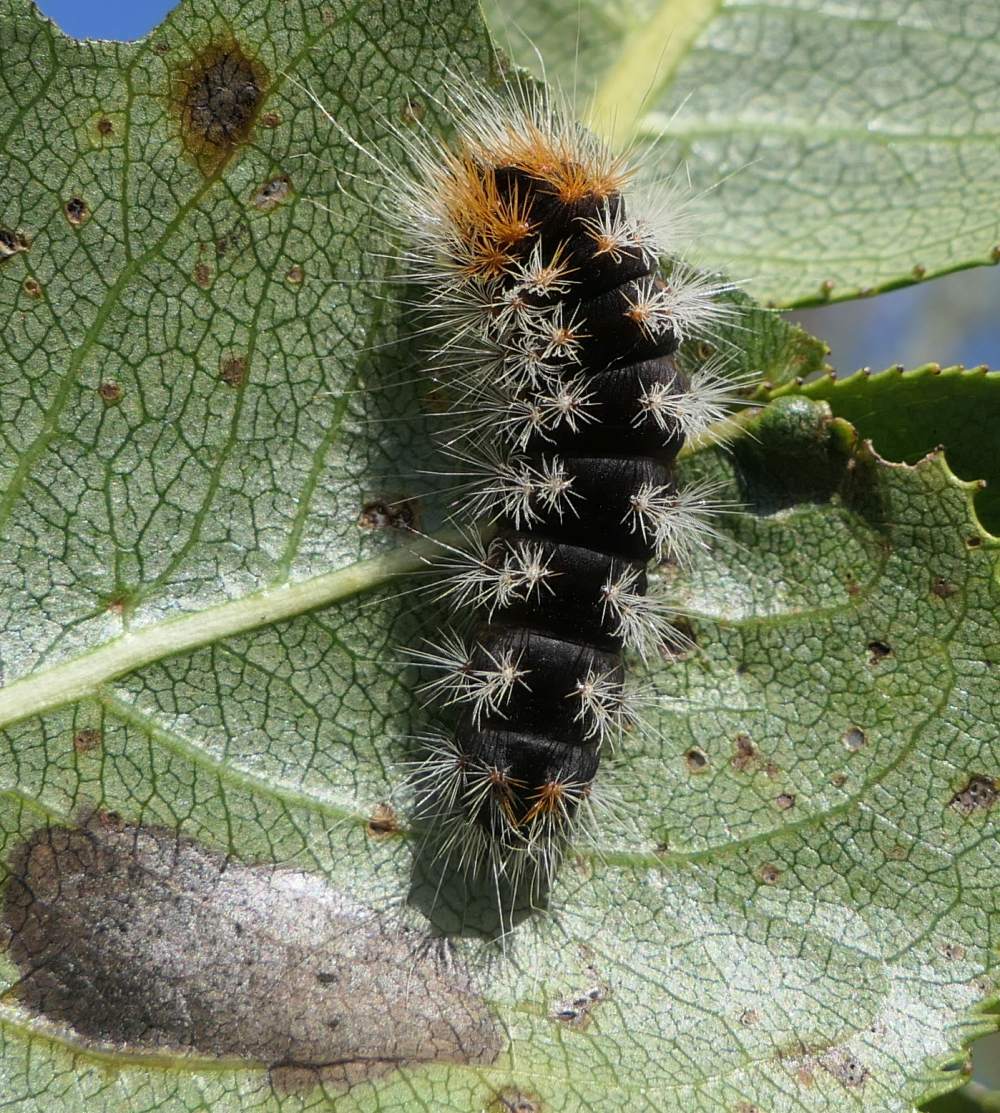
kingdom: Animalia
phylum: Arthropoda
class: Insecta
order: Lepidoptera
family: Noctuidae
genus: Acronicta
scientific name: Acronicta impressa
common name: Impressed dagger
